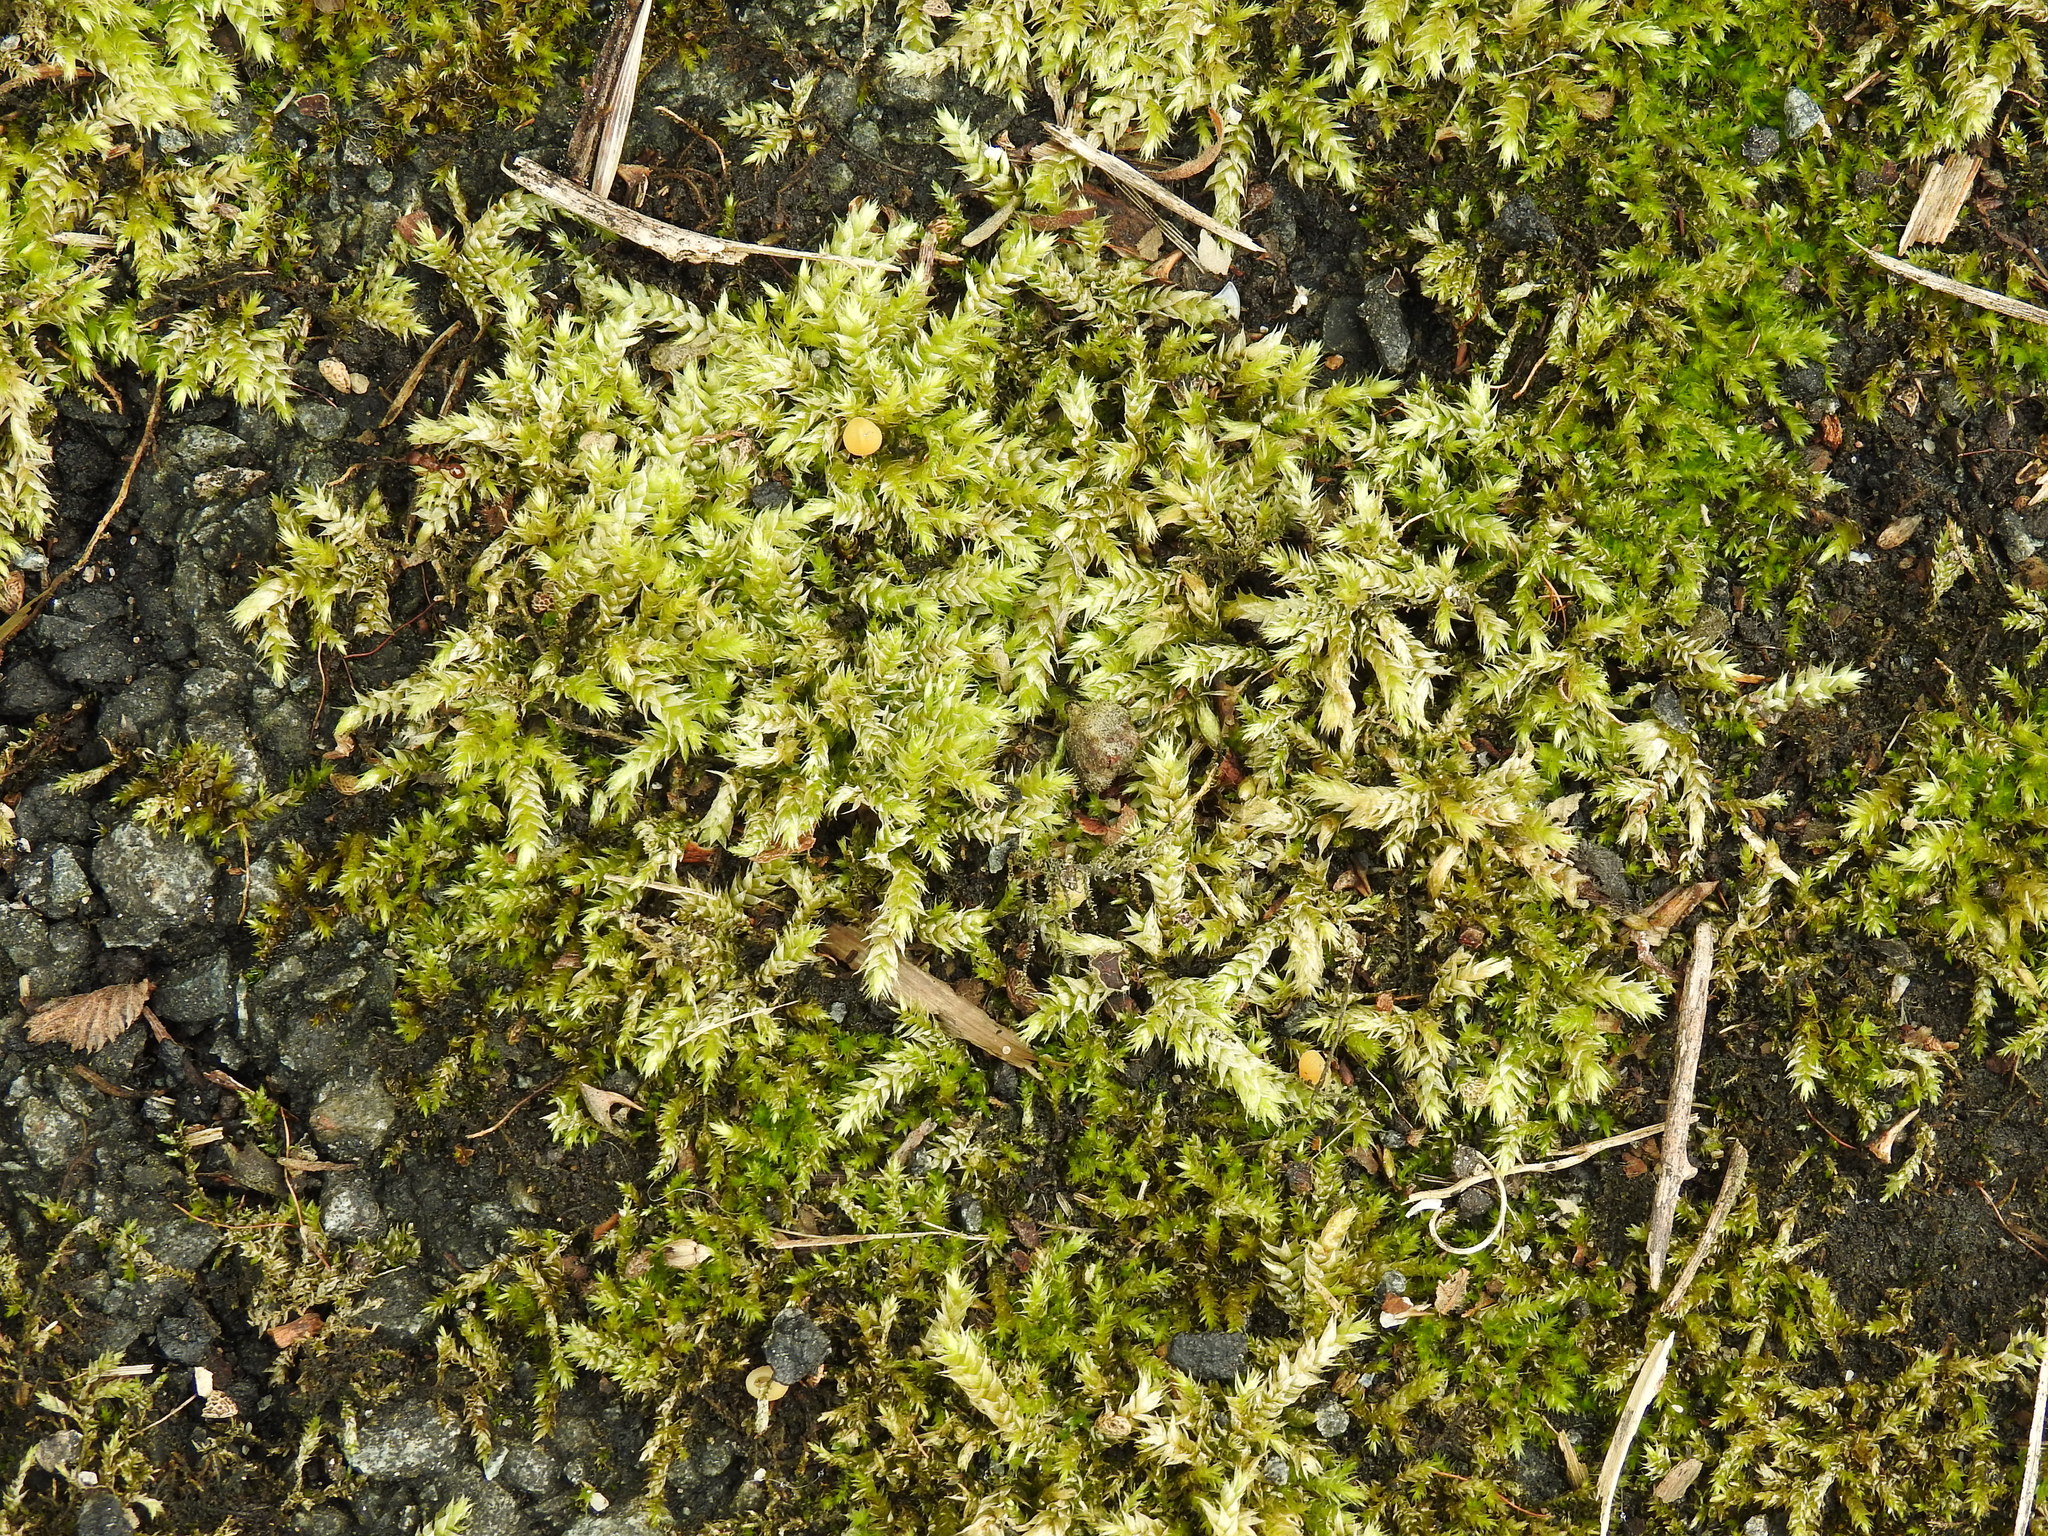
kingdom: Plantae
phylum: Bryophyta
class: Bryopsida
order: Hypnales
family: Brachytheciaceae
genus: Brachythecium
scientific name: Brachythecium rutabulum
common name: Rough-stalked feather-moss
